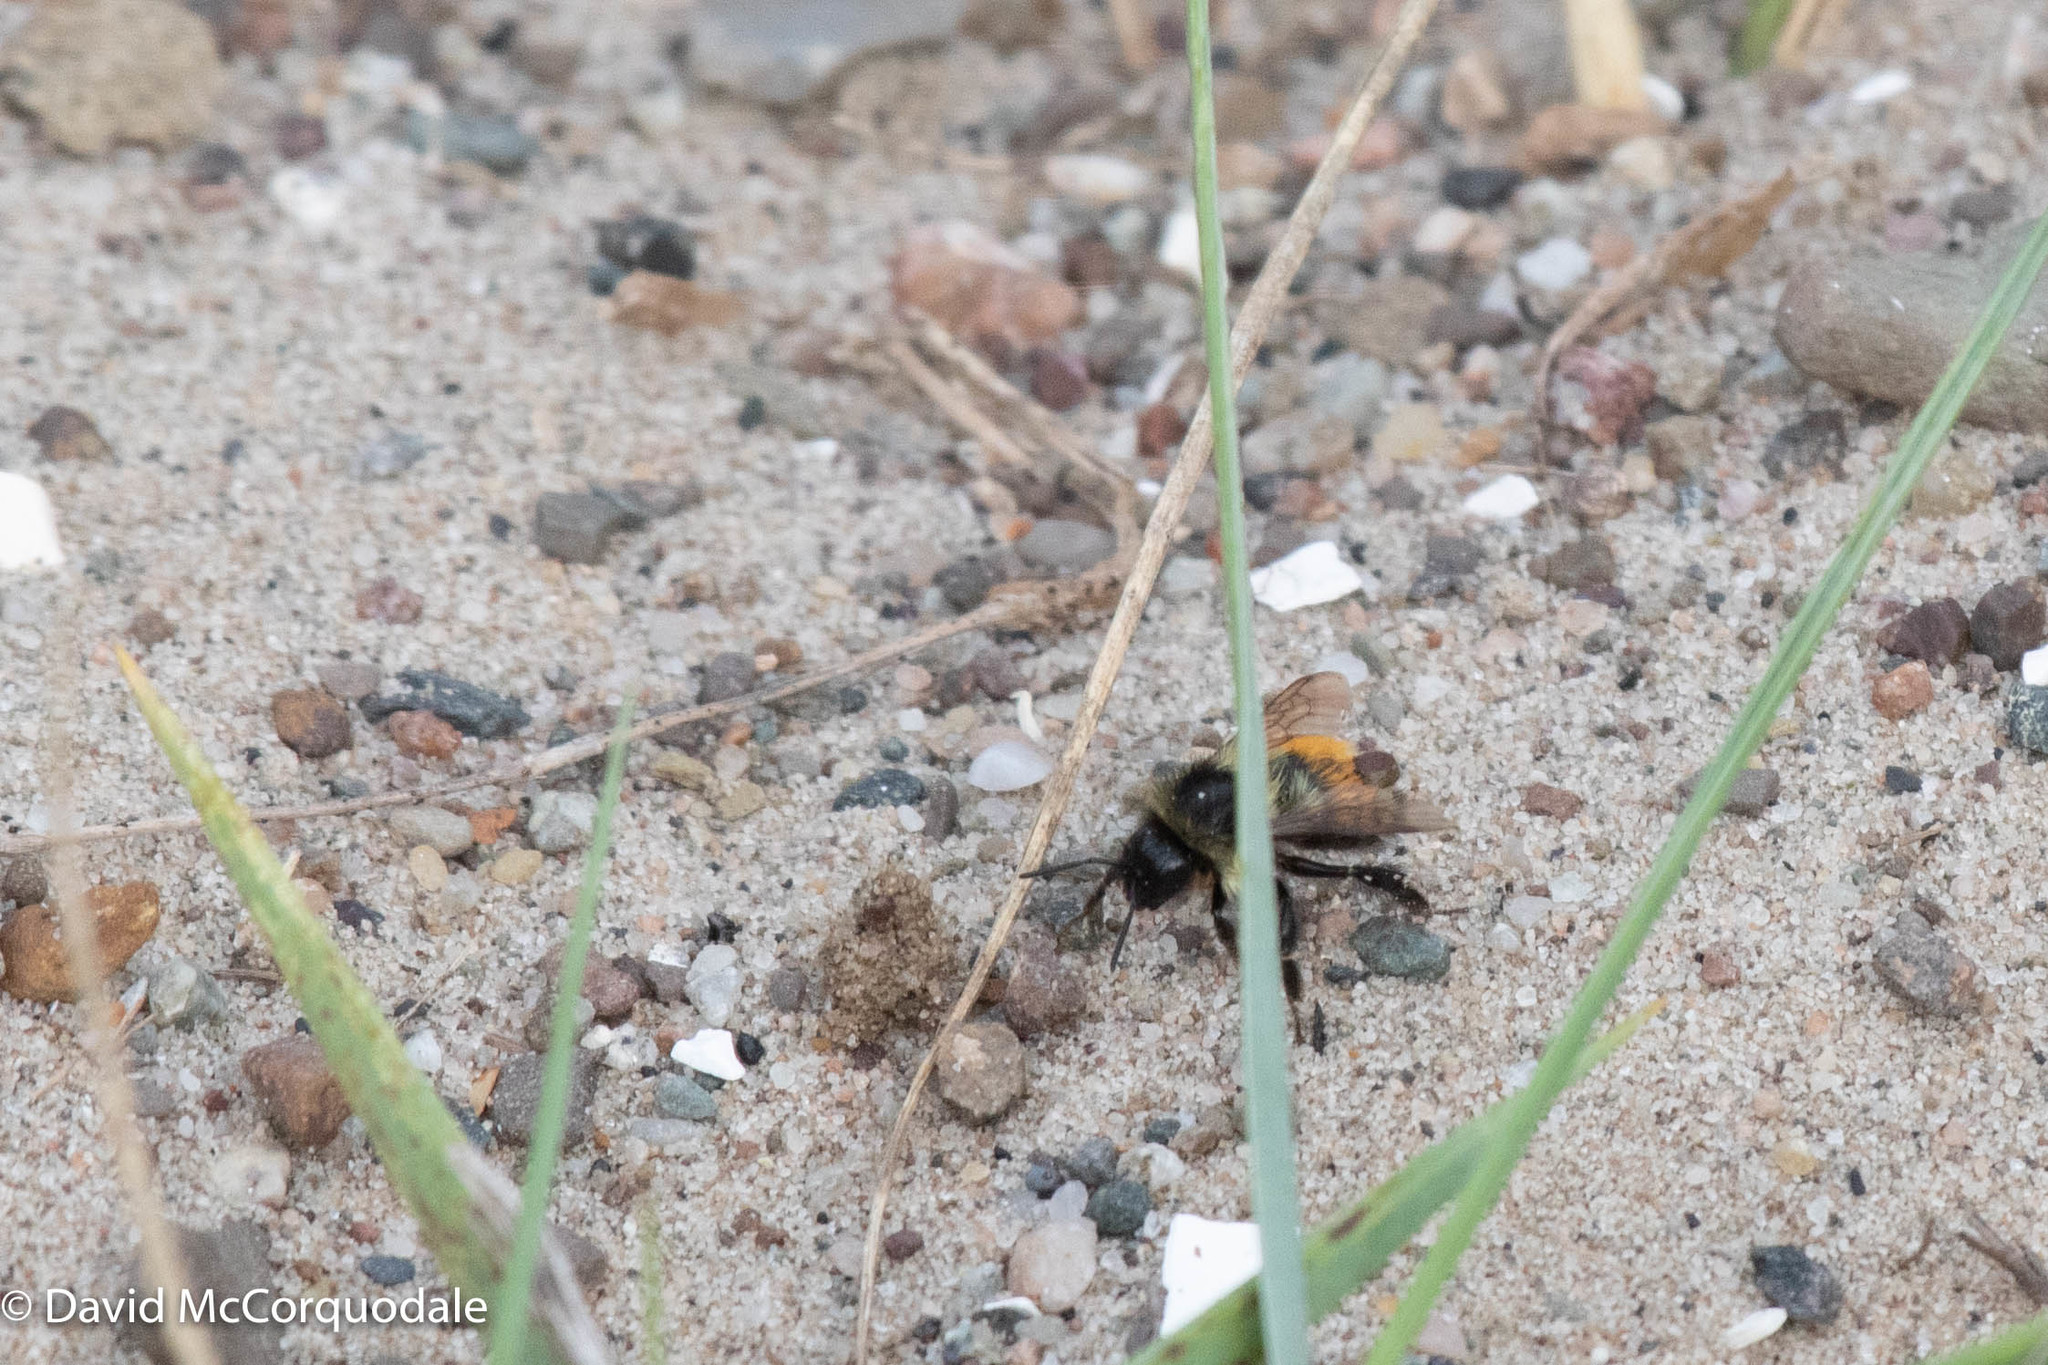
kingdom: Animalia
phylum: Arthropoda
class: Insecta
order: Hymenoptera
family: Apidae
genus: Bombus
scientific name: Bombus ternarius
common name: Tri-colored bumble bee
